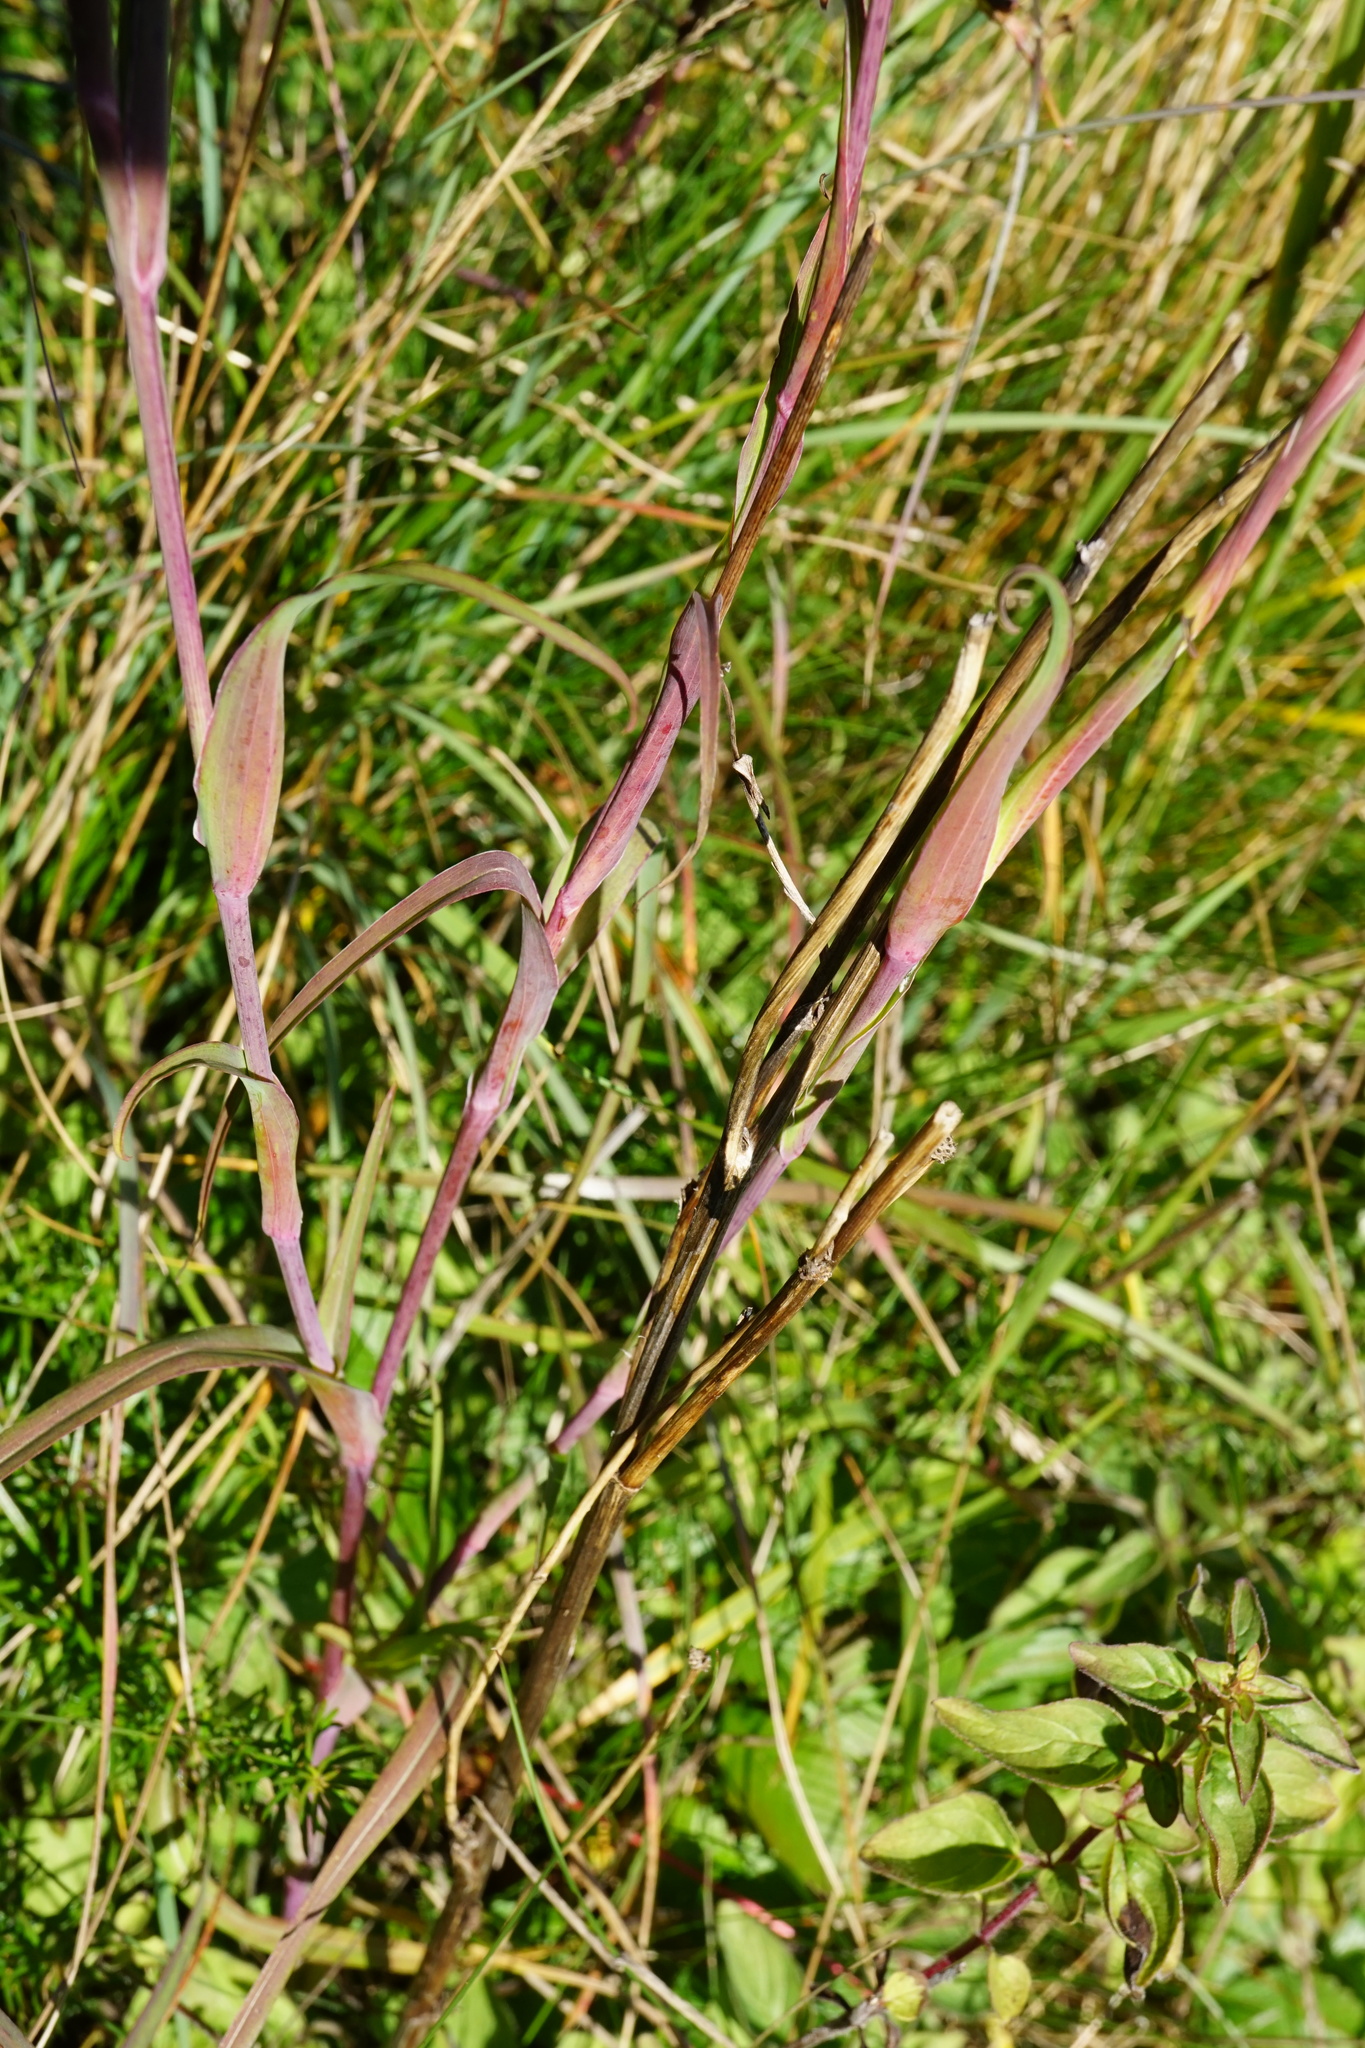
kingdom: Plantae
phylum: Tracheophyta
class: Magnoliopsida
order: Asterales
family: Asteraceae
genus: Tragopogon
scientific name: Tragopogon orientalis
